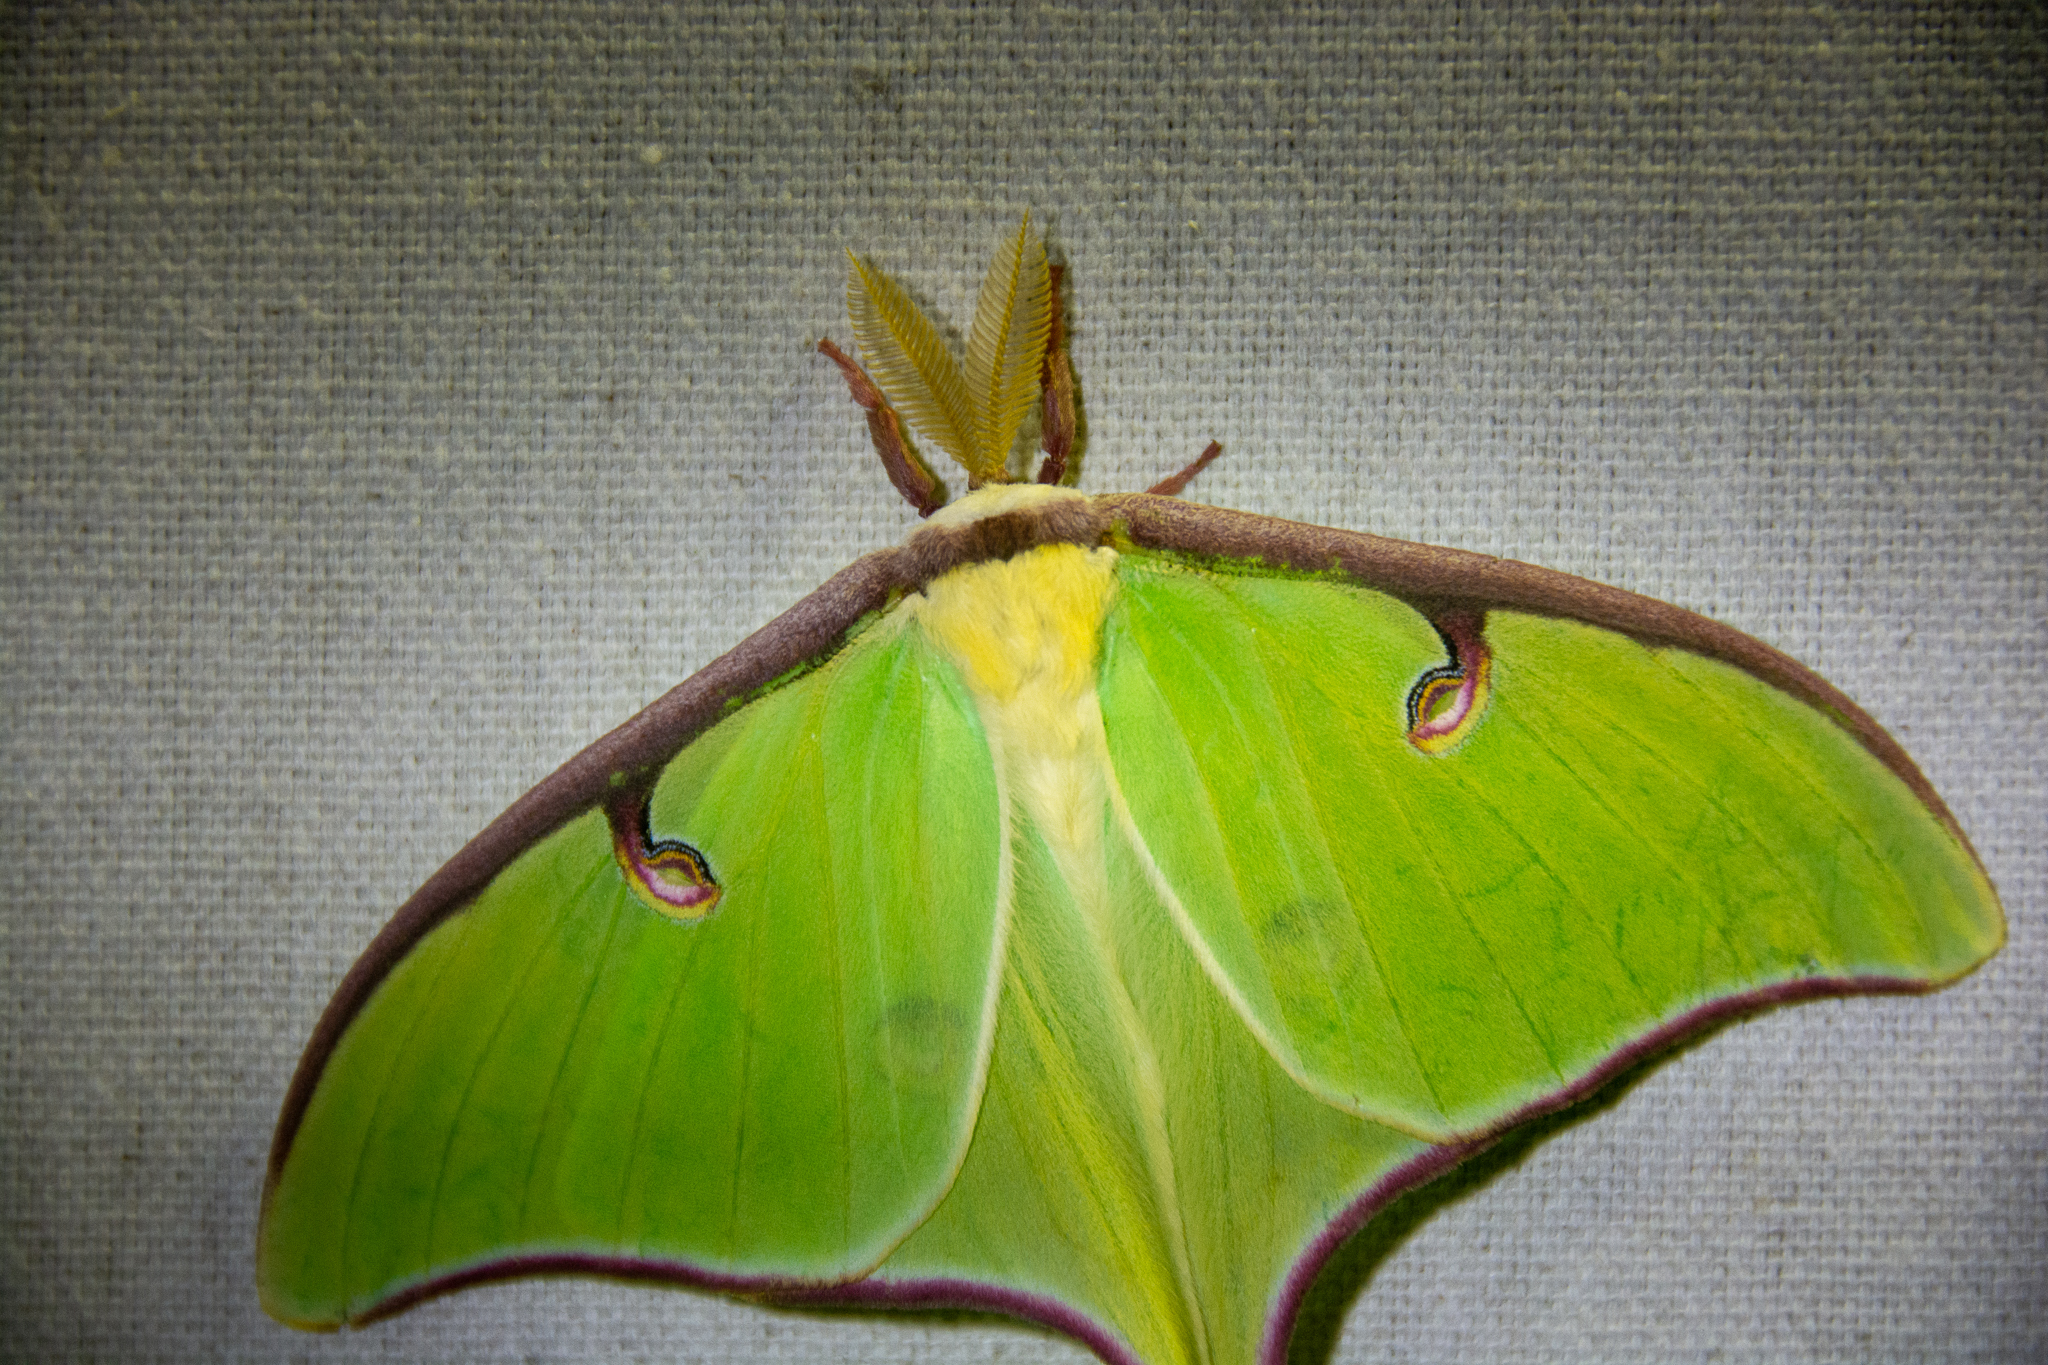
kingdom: Animalia
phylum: Arthropoda
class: Insecta
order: Lepidoptera
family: Saturniidae
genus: Actias
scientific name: Actias luna
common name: Luna moth
